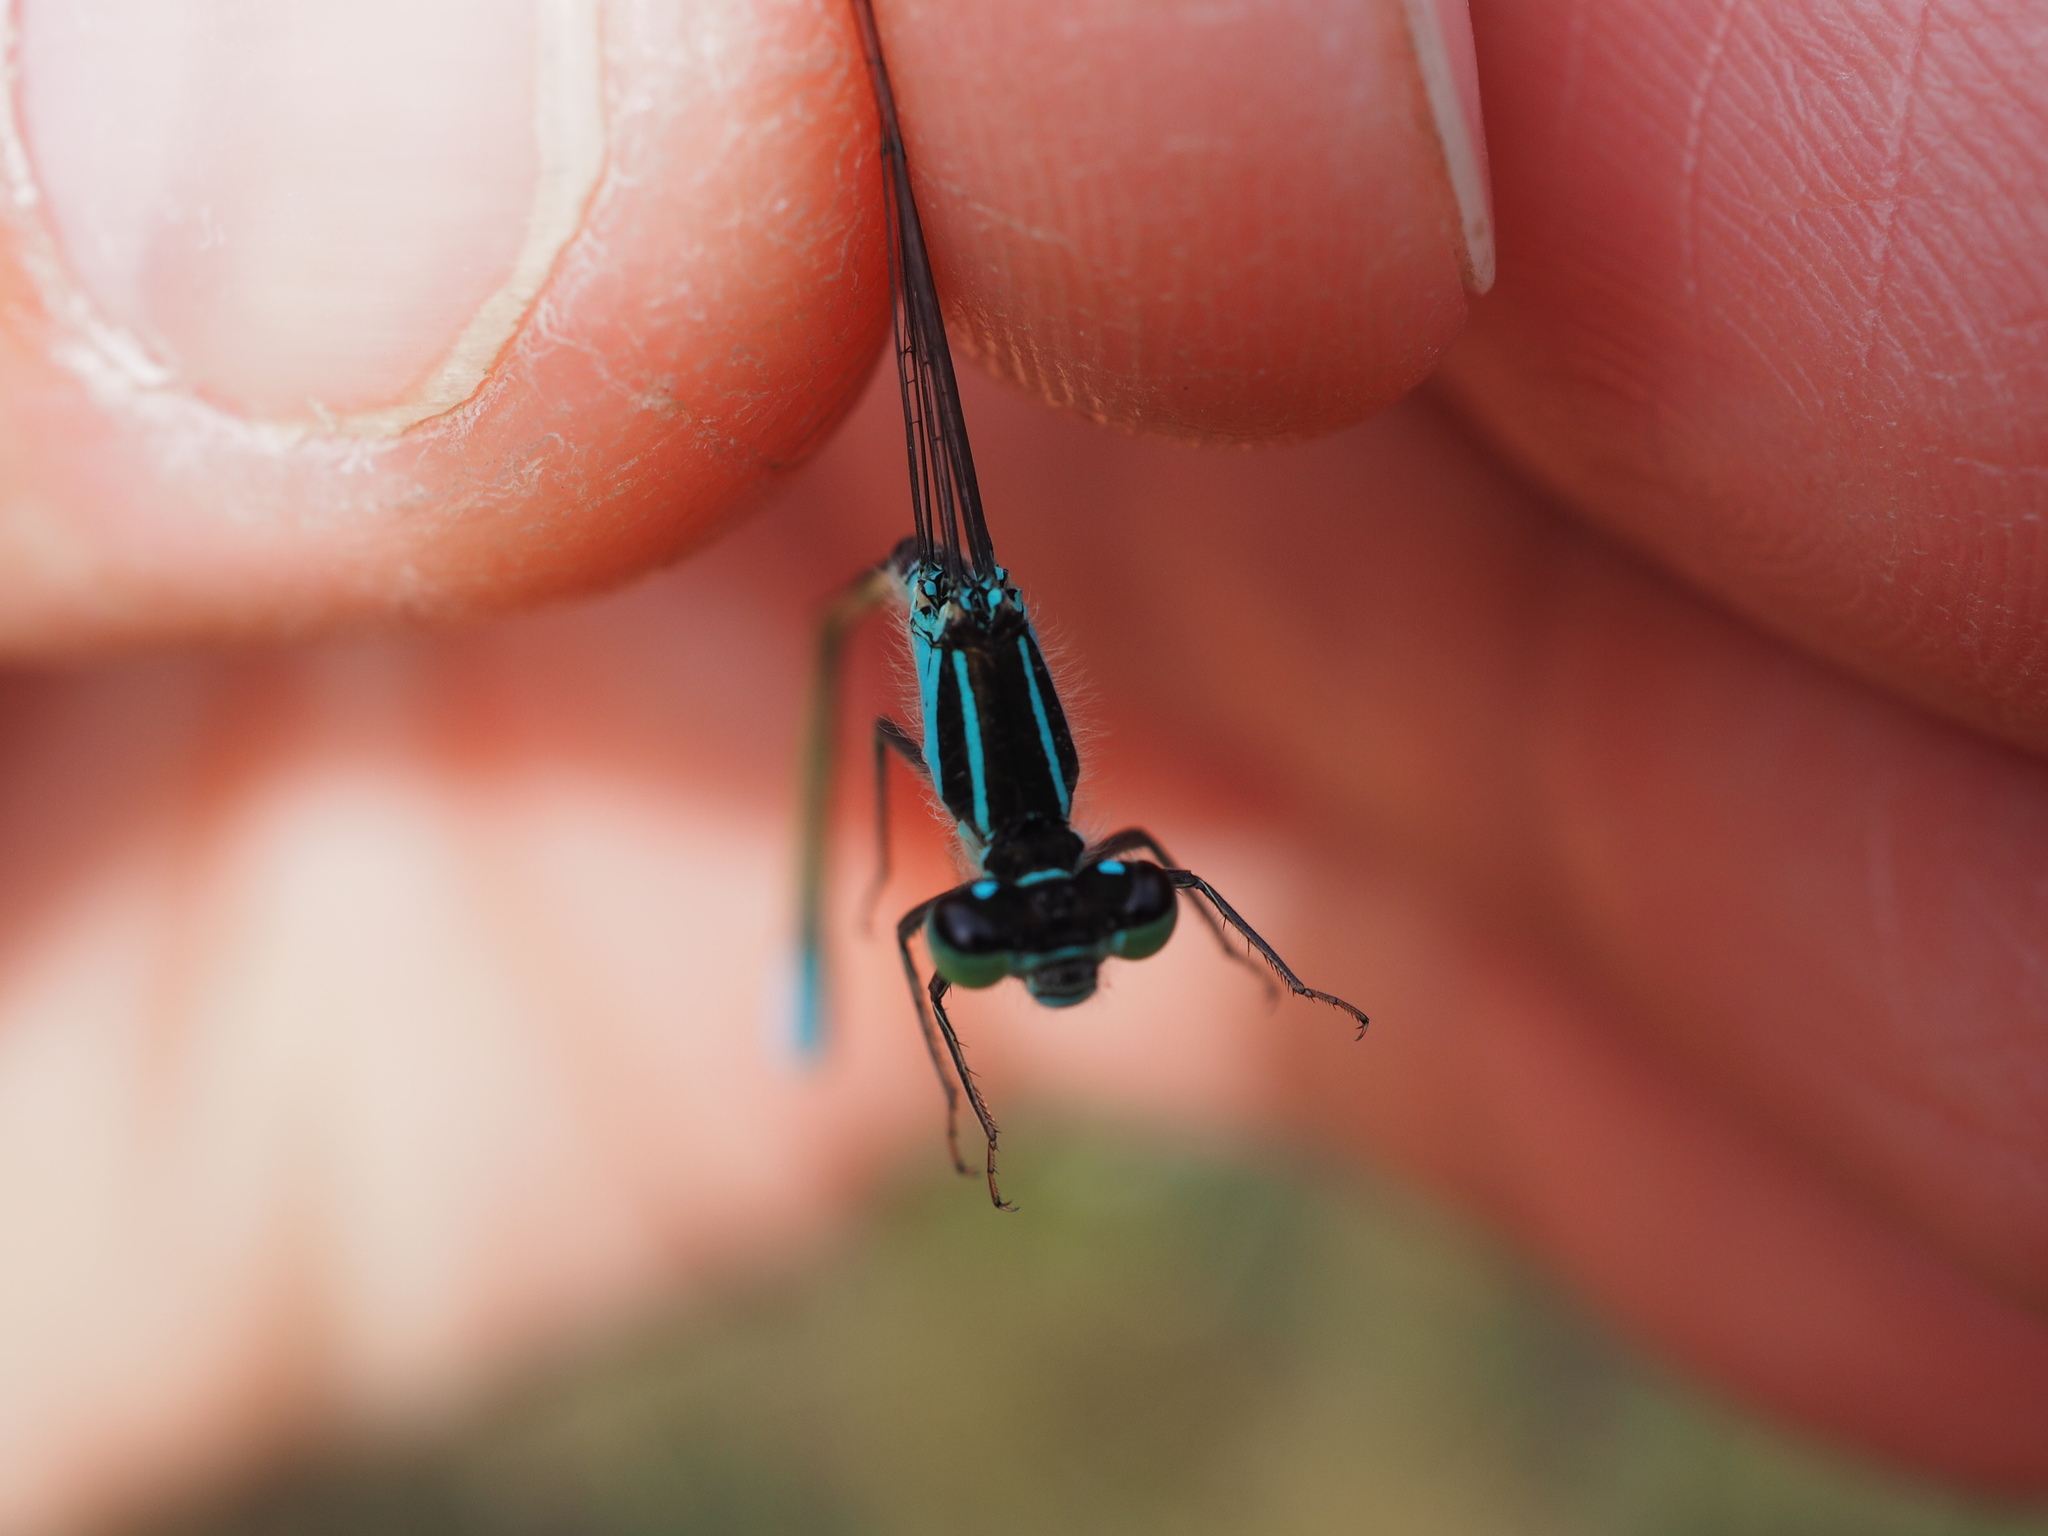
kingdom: Animalia
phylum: Arthropoda
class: Insecta
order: Odonata
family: Coenagrionidae
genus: Ischnura
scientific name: Ischnura elegans
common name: Blue-tailed damselfly
